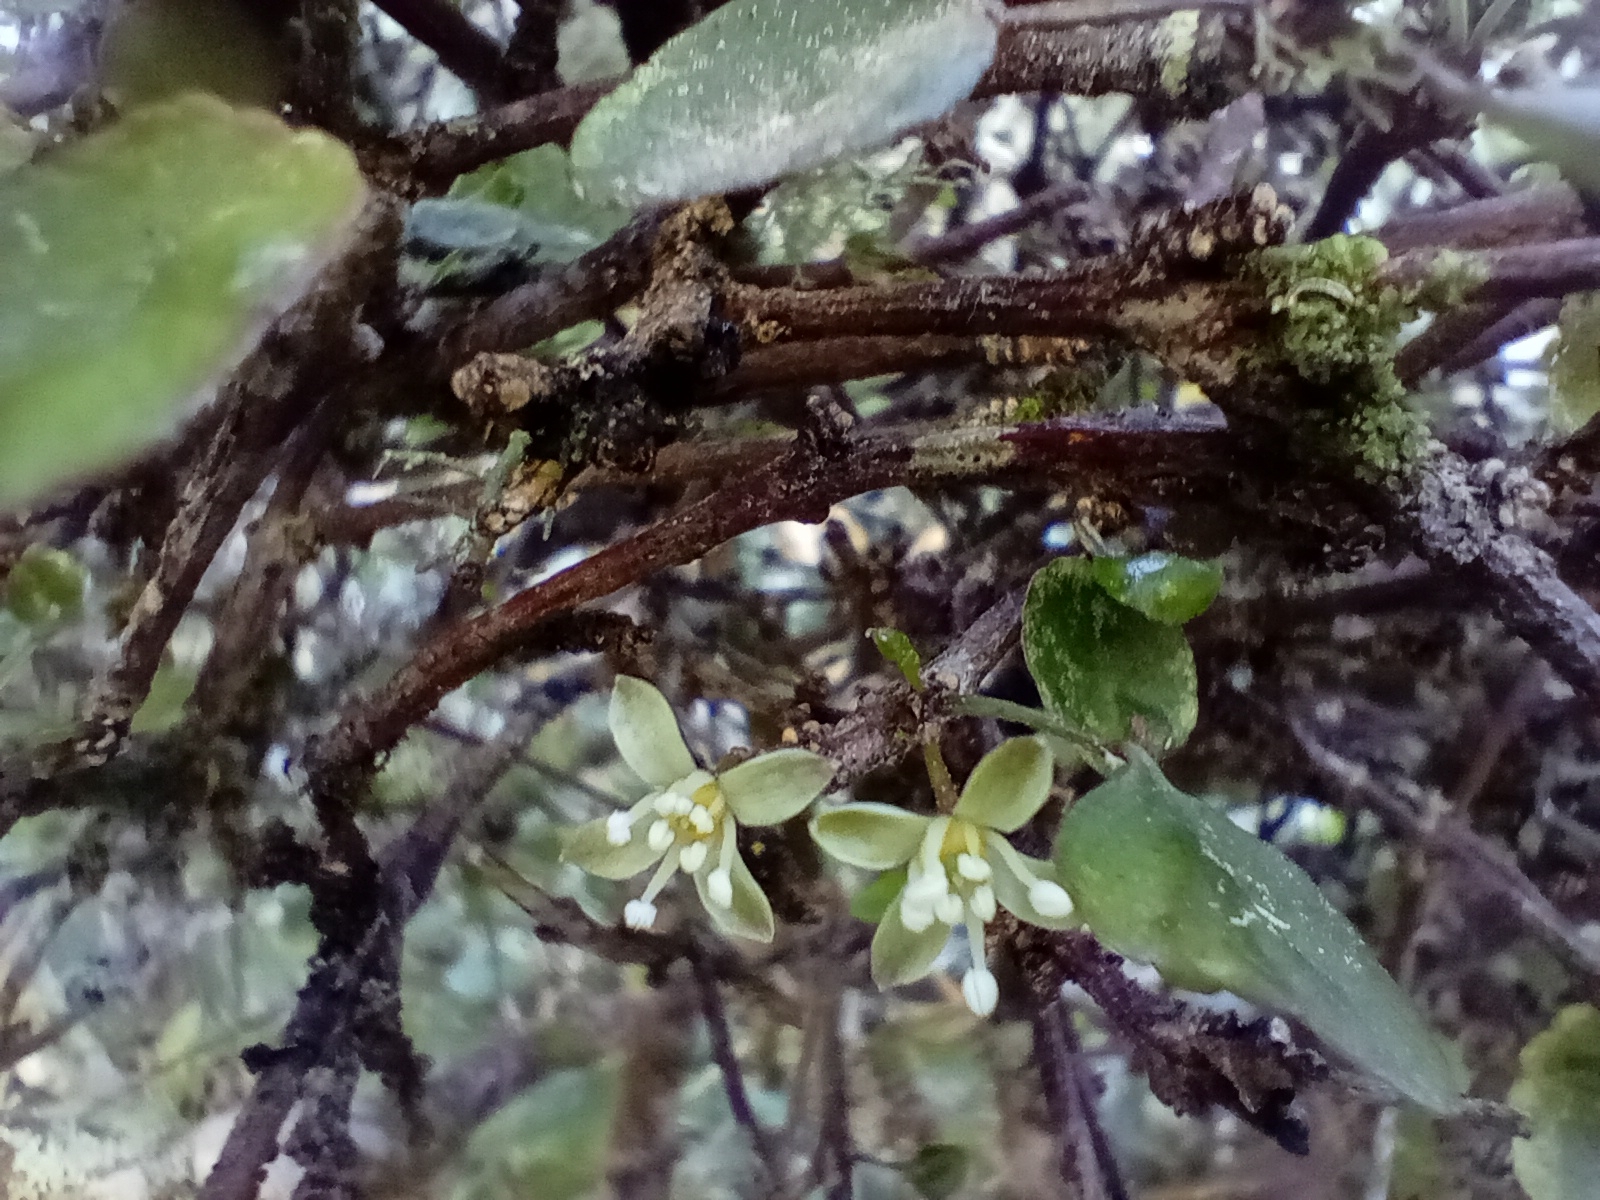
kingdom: Plantae
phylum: Tracheophyta
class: Magnoliopsida
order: Sapindales
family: Rutaceae
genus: Melicope
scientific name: Melicope simplex
